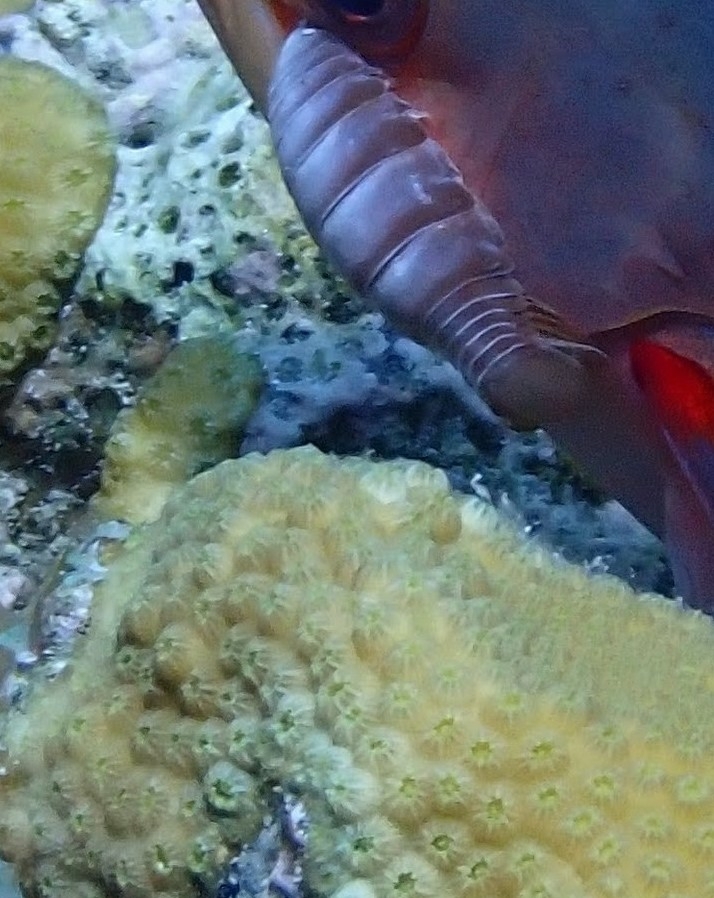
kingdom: Animalia
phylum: Arthropoda
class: Malacostraca
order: Isopoda
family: Cymothoidae
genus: Anilocra
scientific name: Anilocra haemuli
